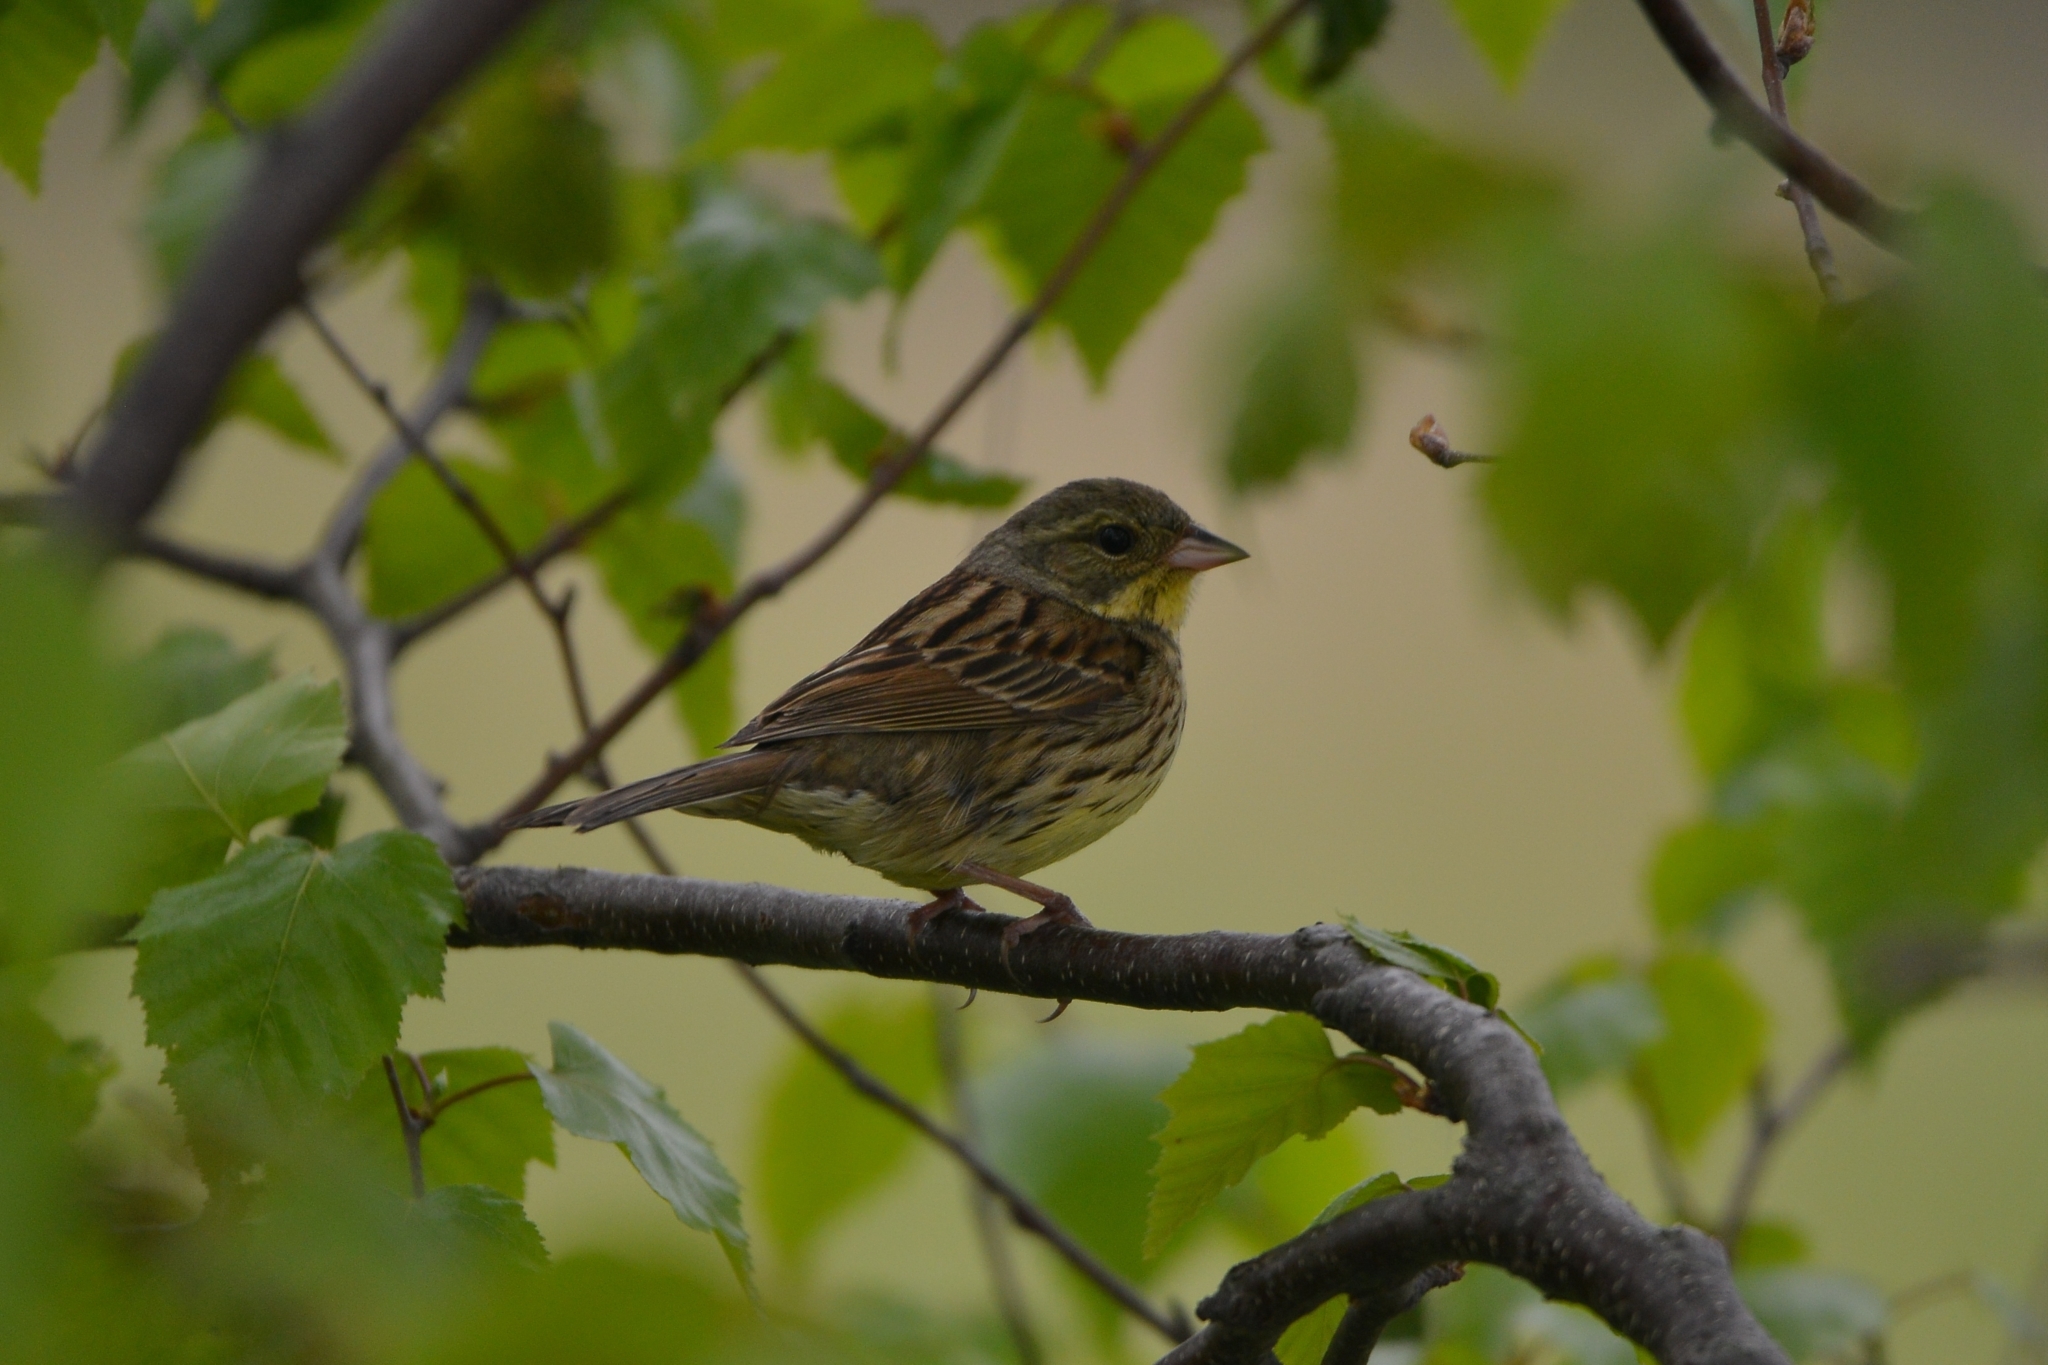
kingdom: Animalia
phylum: Chordata
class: Aves
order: Passeriformes
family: Emberizidae
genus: Emberiza
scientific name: Emberiza personata
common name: Masked bunting
